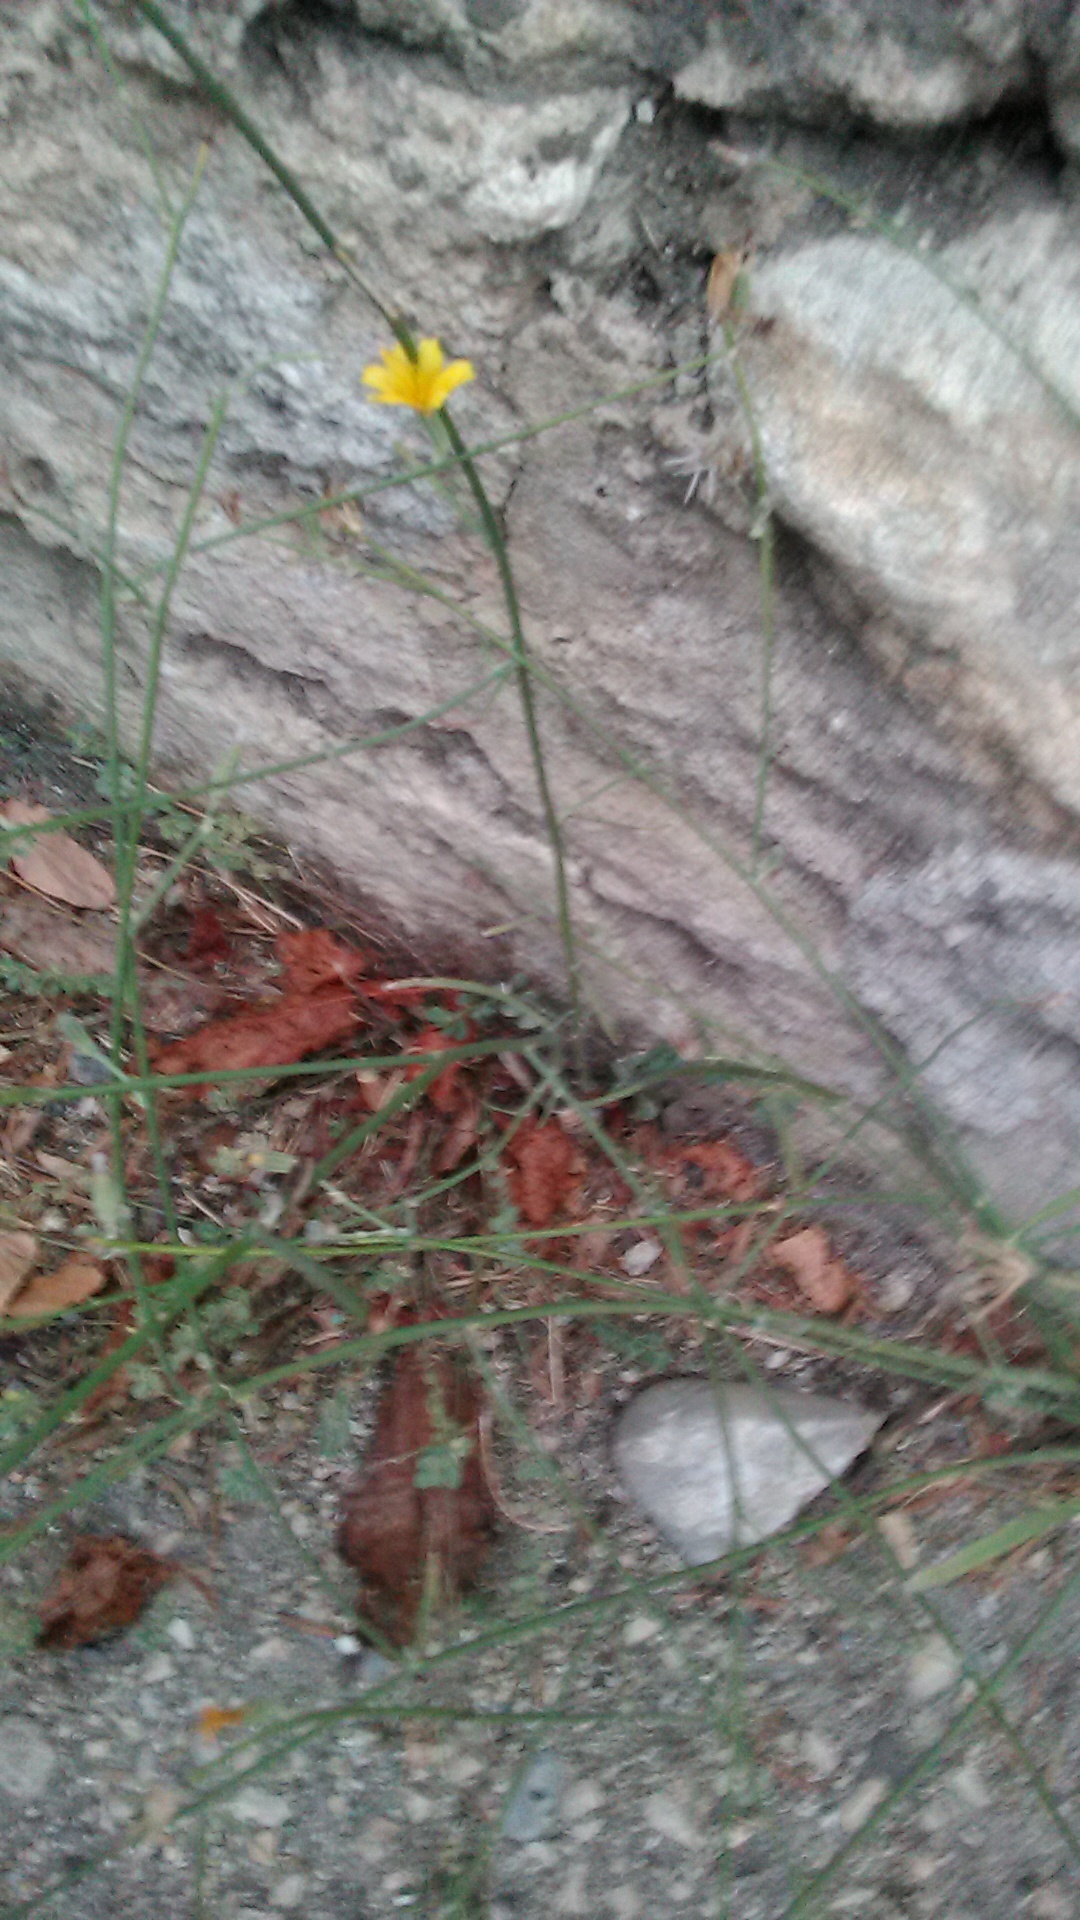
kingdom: Plantae
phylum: Tracheophyta
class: Magnoliopsida
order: Asterales
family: Asteraceae
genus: Chondrilla
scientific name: Chondrilla juncea
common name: Skeleton weed
